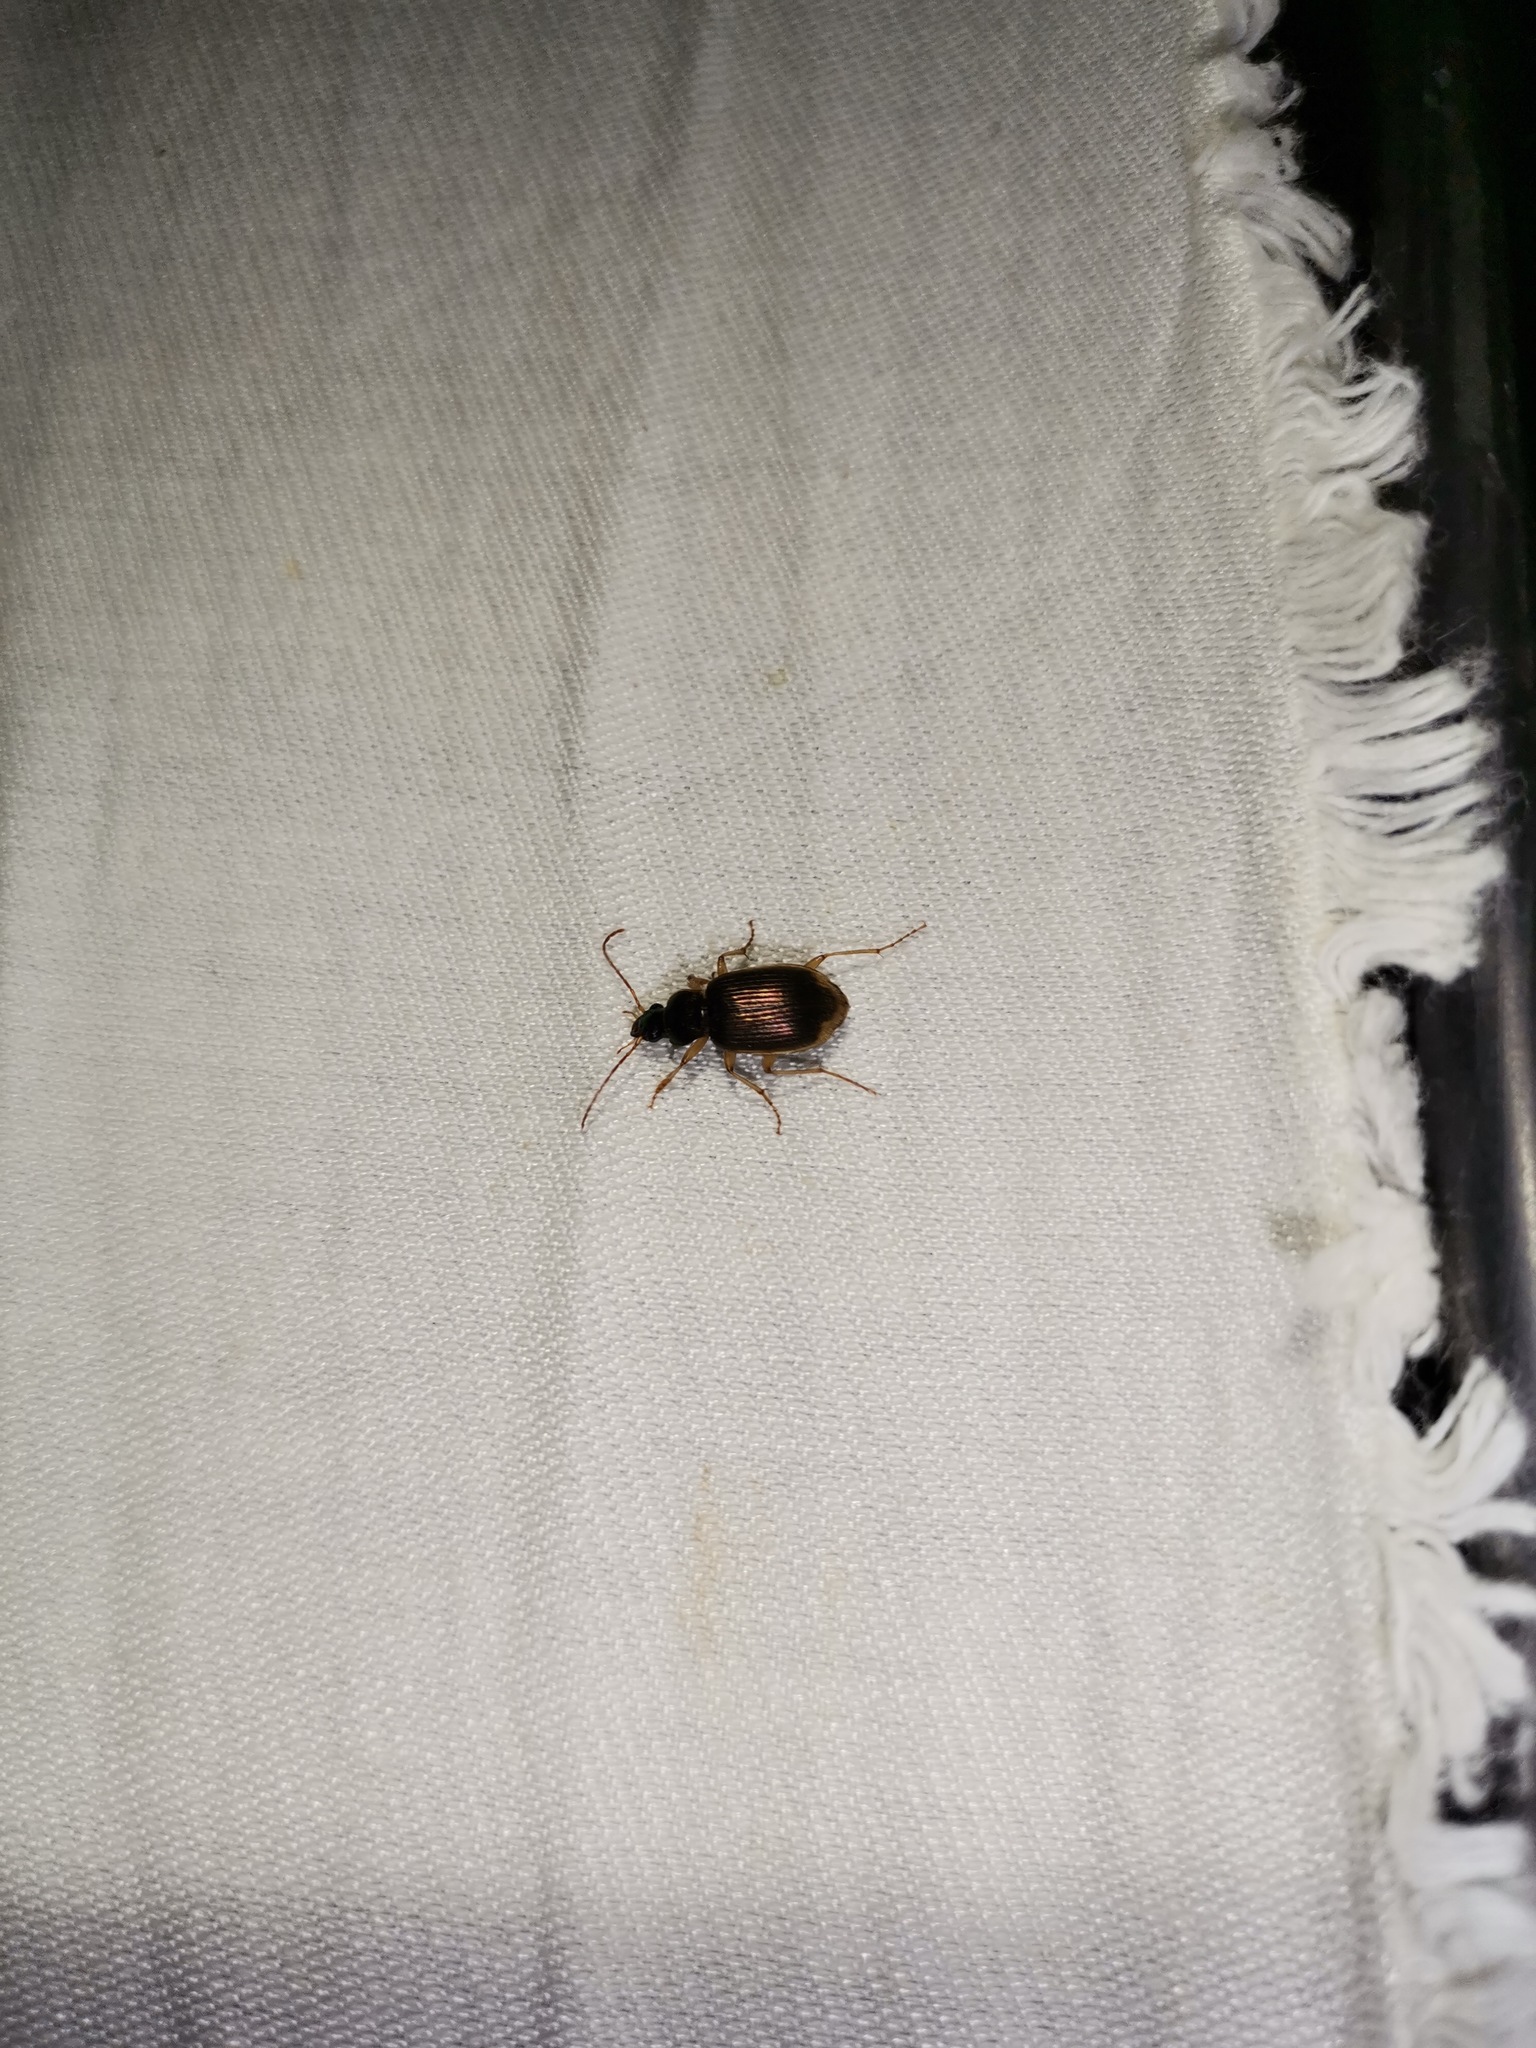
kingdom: Animalia
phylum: Arthropoda
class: Insecta
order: Coleoptera
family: Carabidae
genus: Chlaenius
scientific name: Chlaenius vestitus
